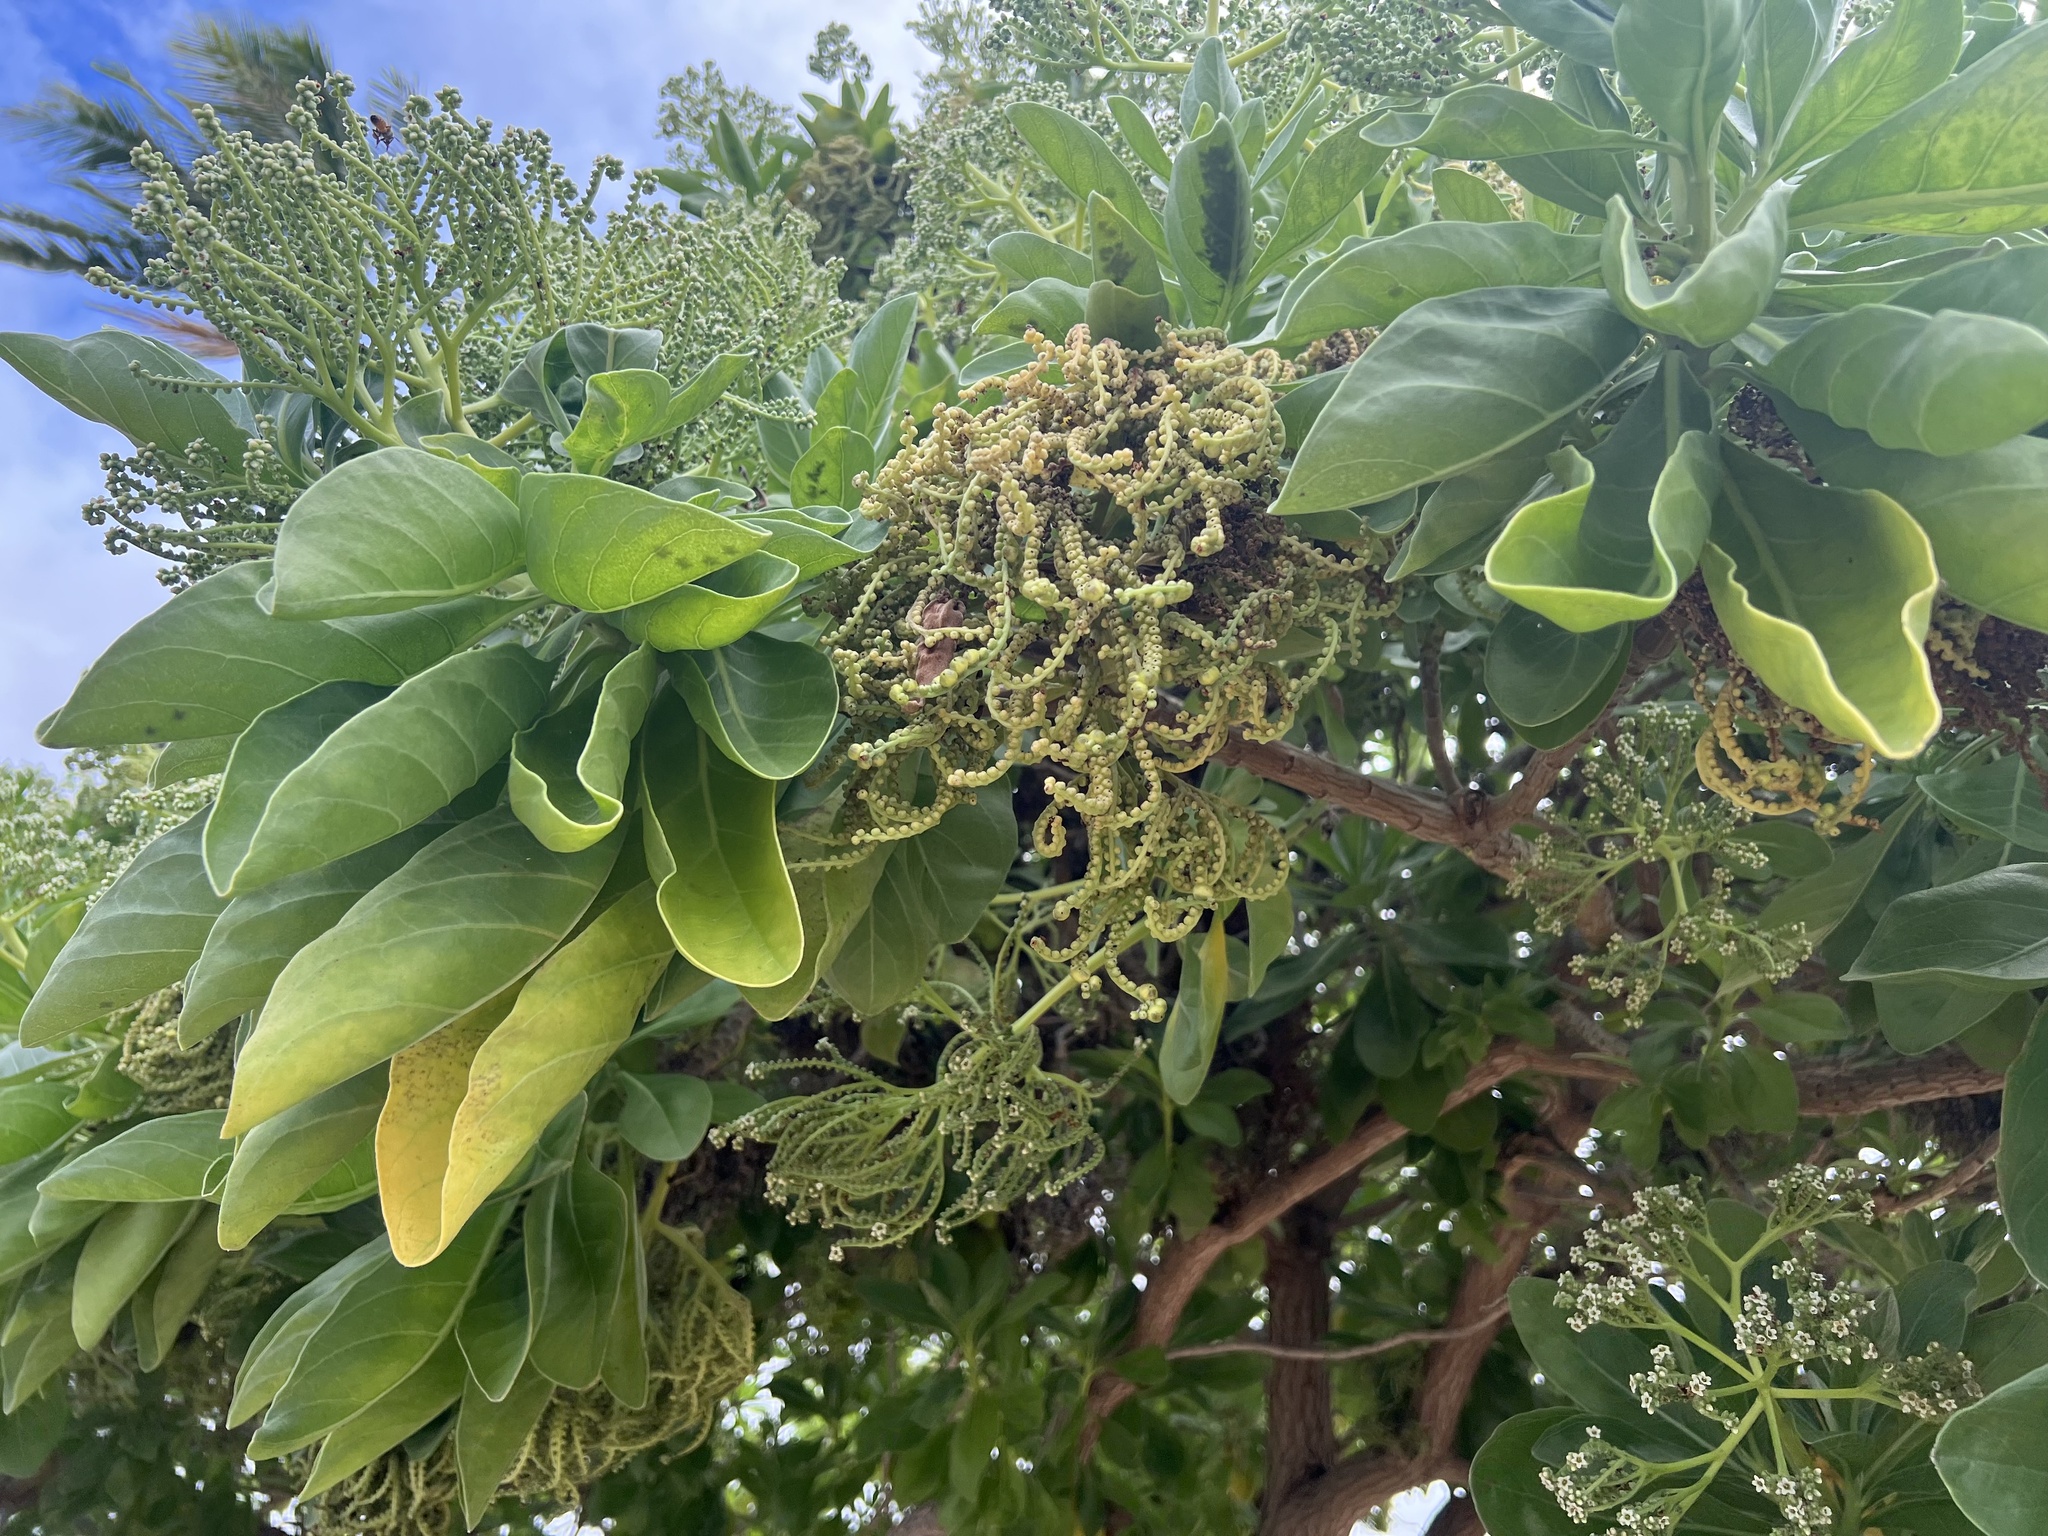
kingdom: Plantae
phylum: Tracheophyta
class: Magnoliopsida
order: Boraginales
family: Heliotropiaceae
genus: Heliotropium
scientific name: Heliotropium velutinum
